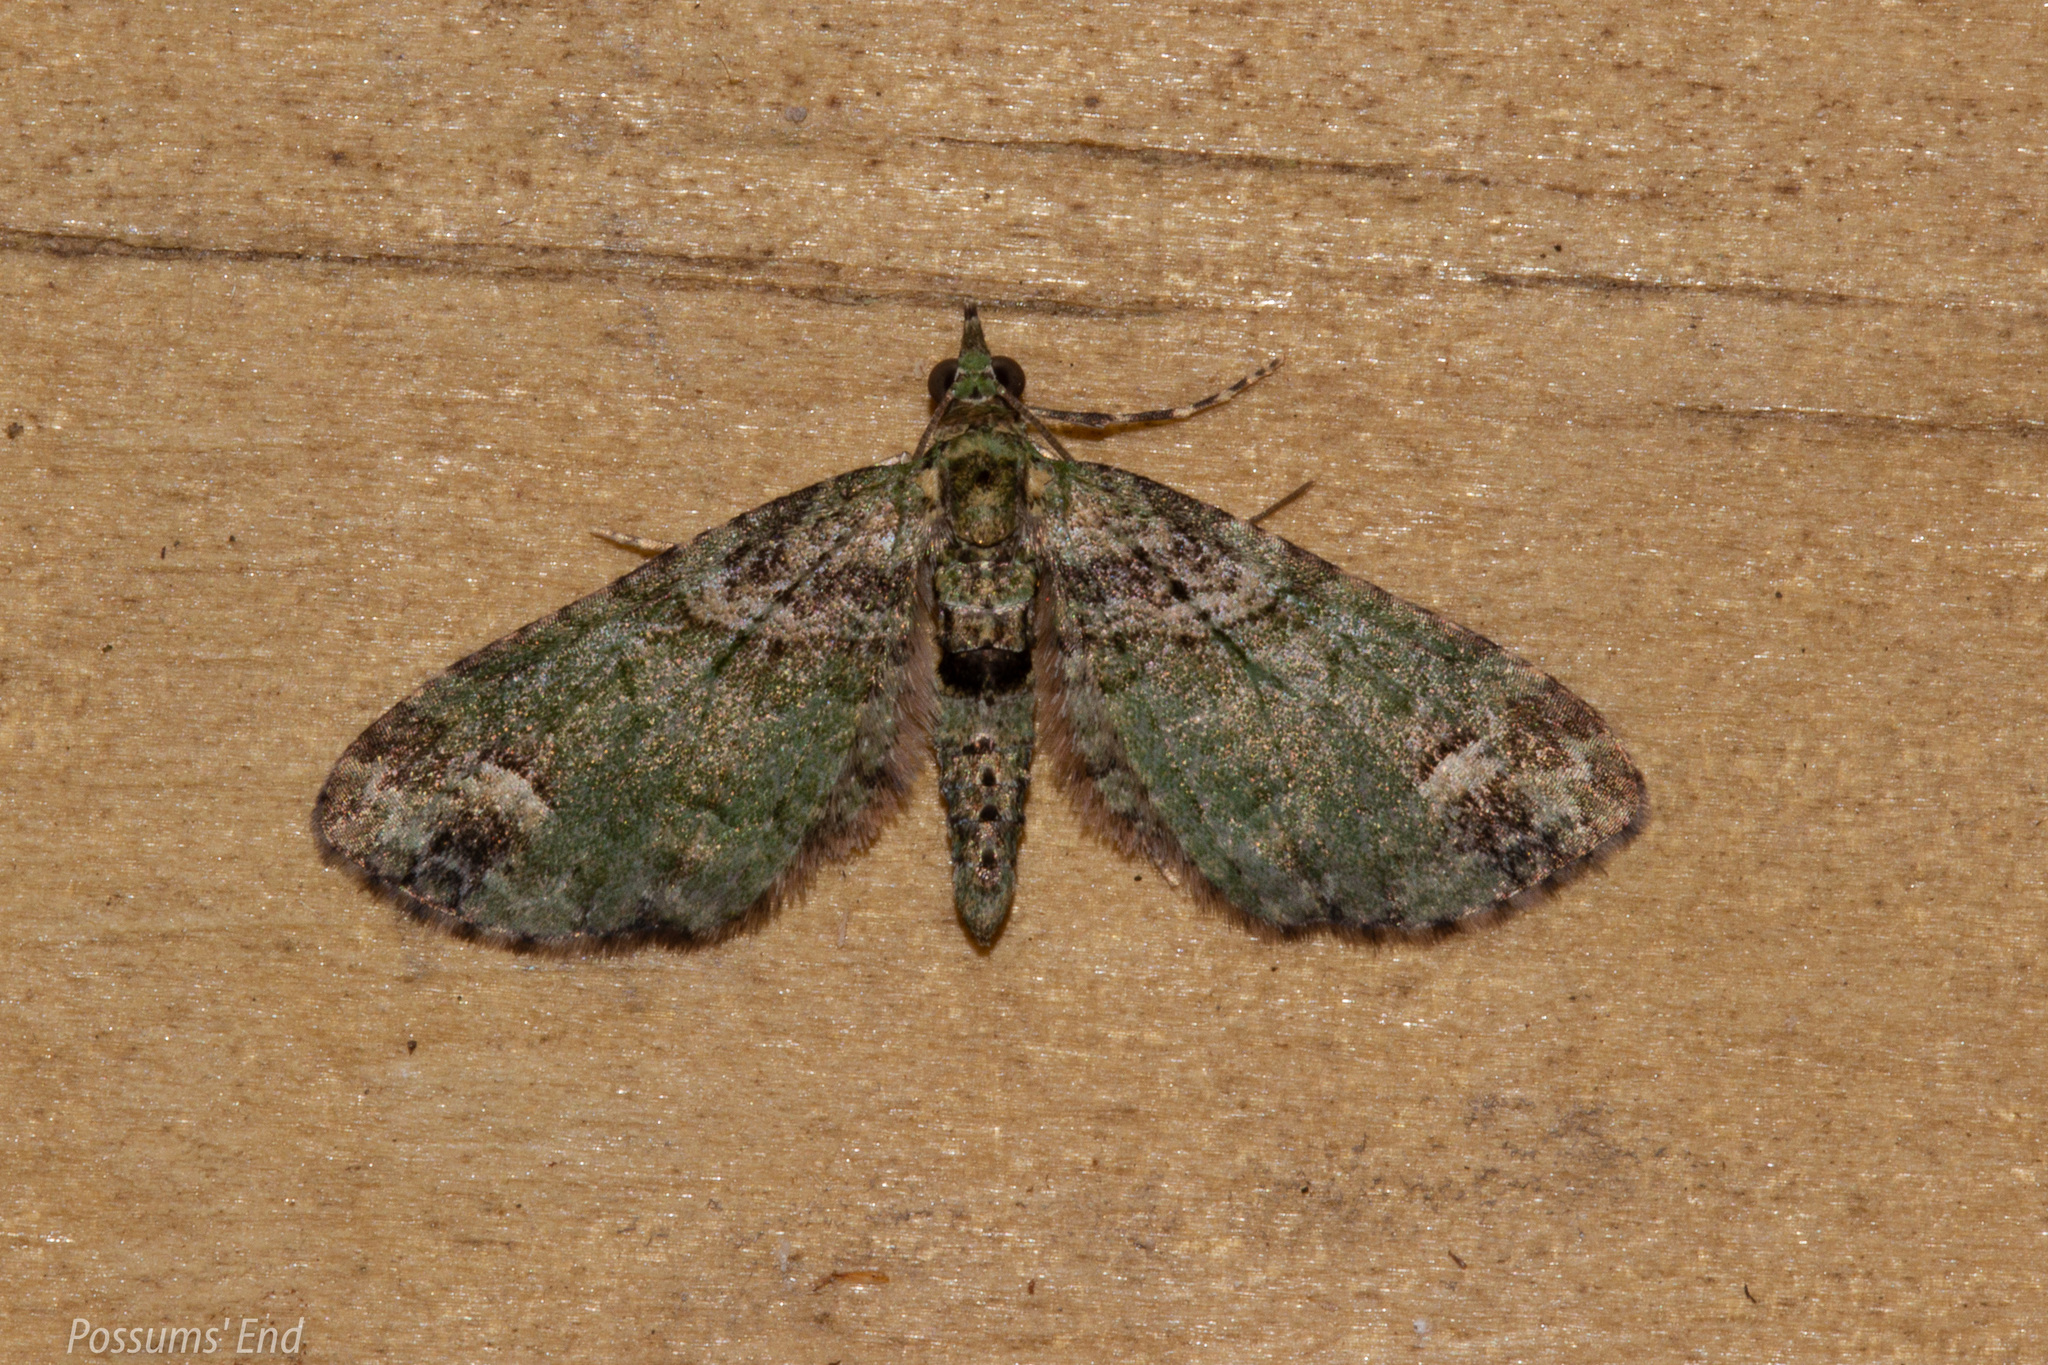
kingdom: Animalia
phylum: Arthropoda
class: Insecta
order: Lepidoptera
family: Geometridae
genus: Idaea
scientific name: Idaea mutanda
